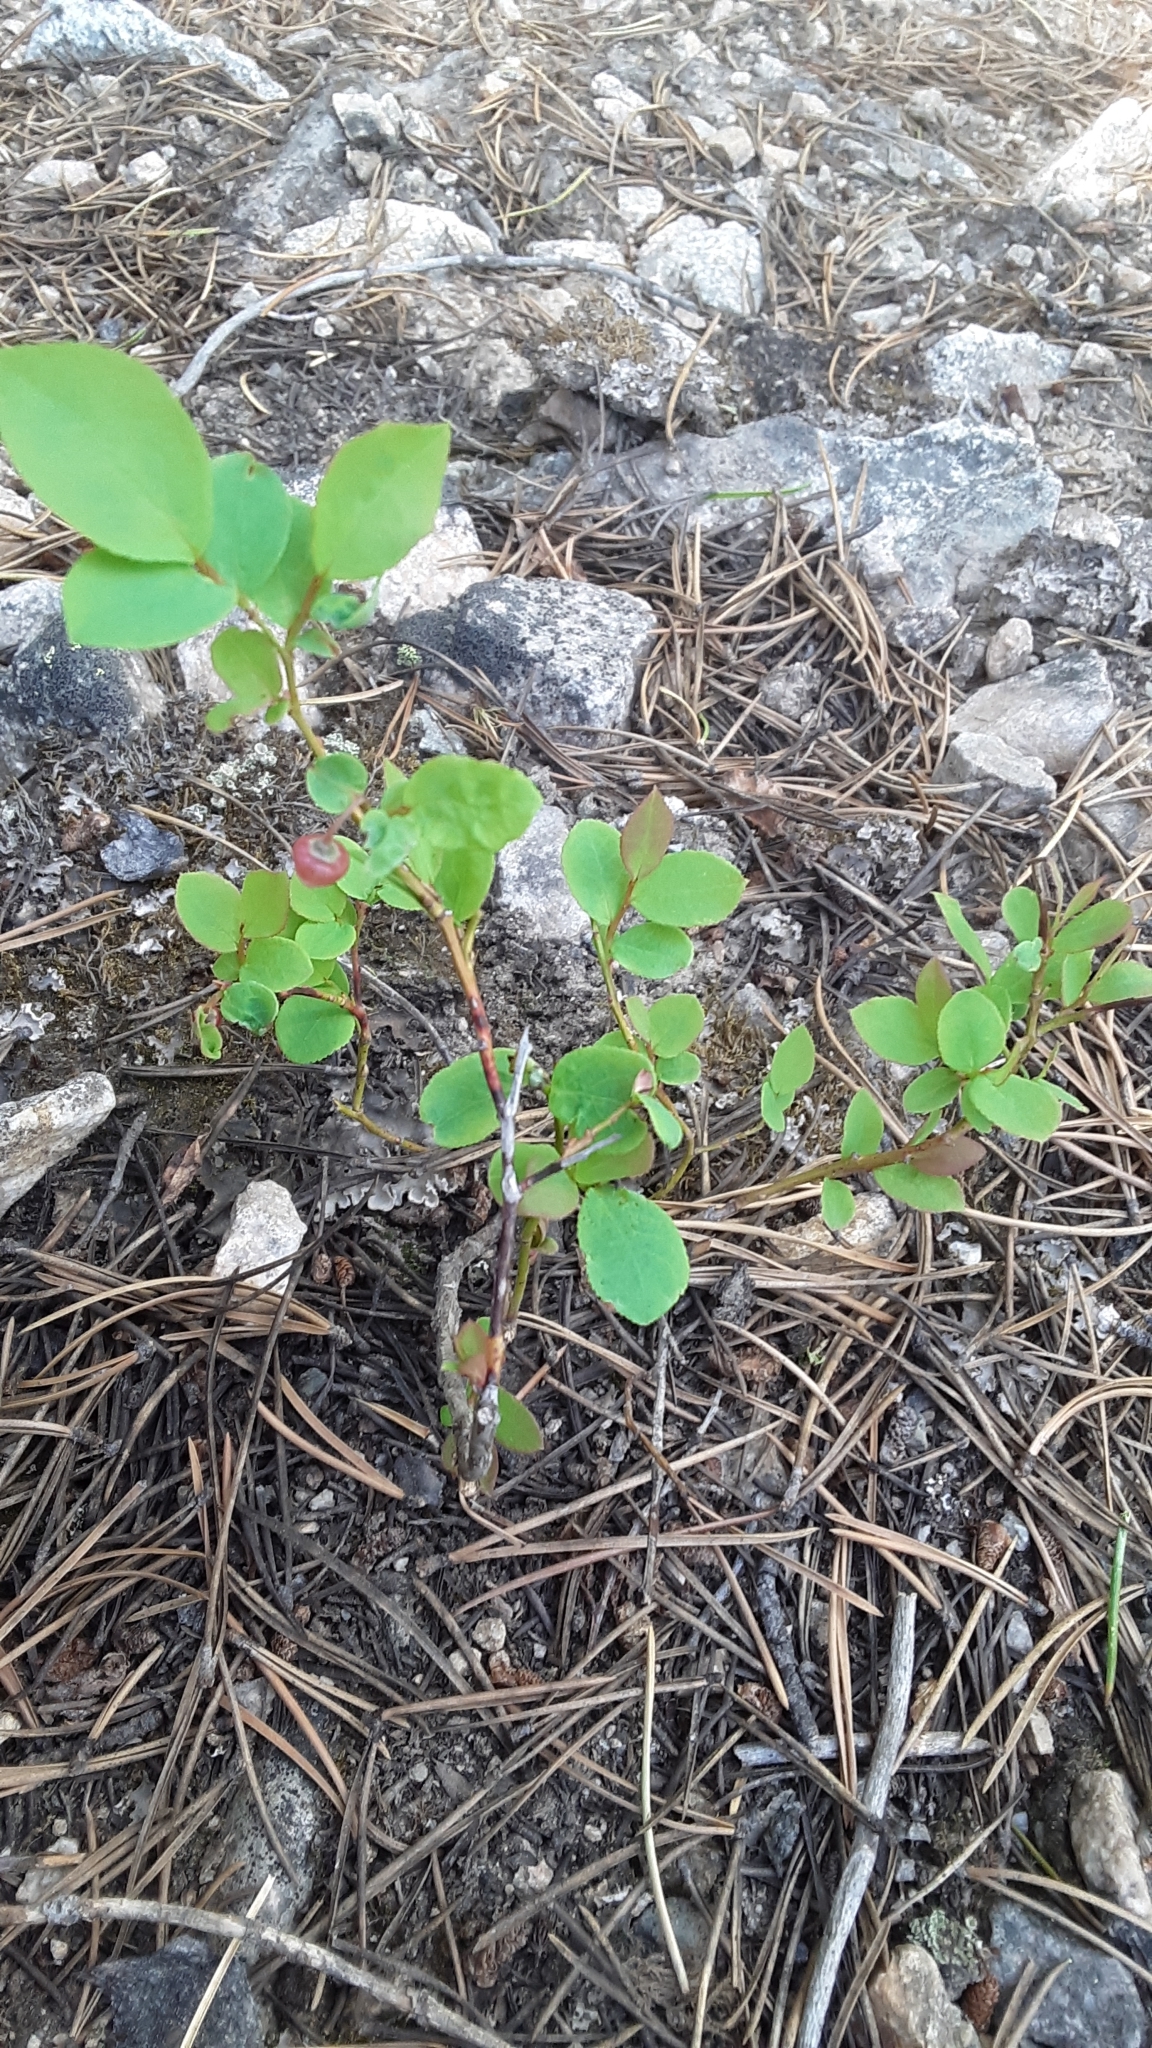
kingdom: Plantae
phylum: Tracheophyta
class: Magnoliopsida
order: Ericales
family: Ericaceae
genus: Vaccinium
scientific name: Vaccinium membranaceum
